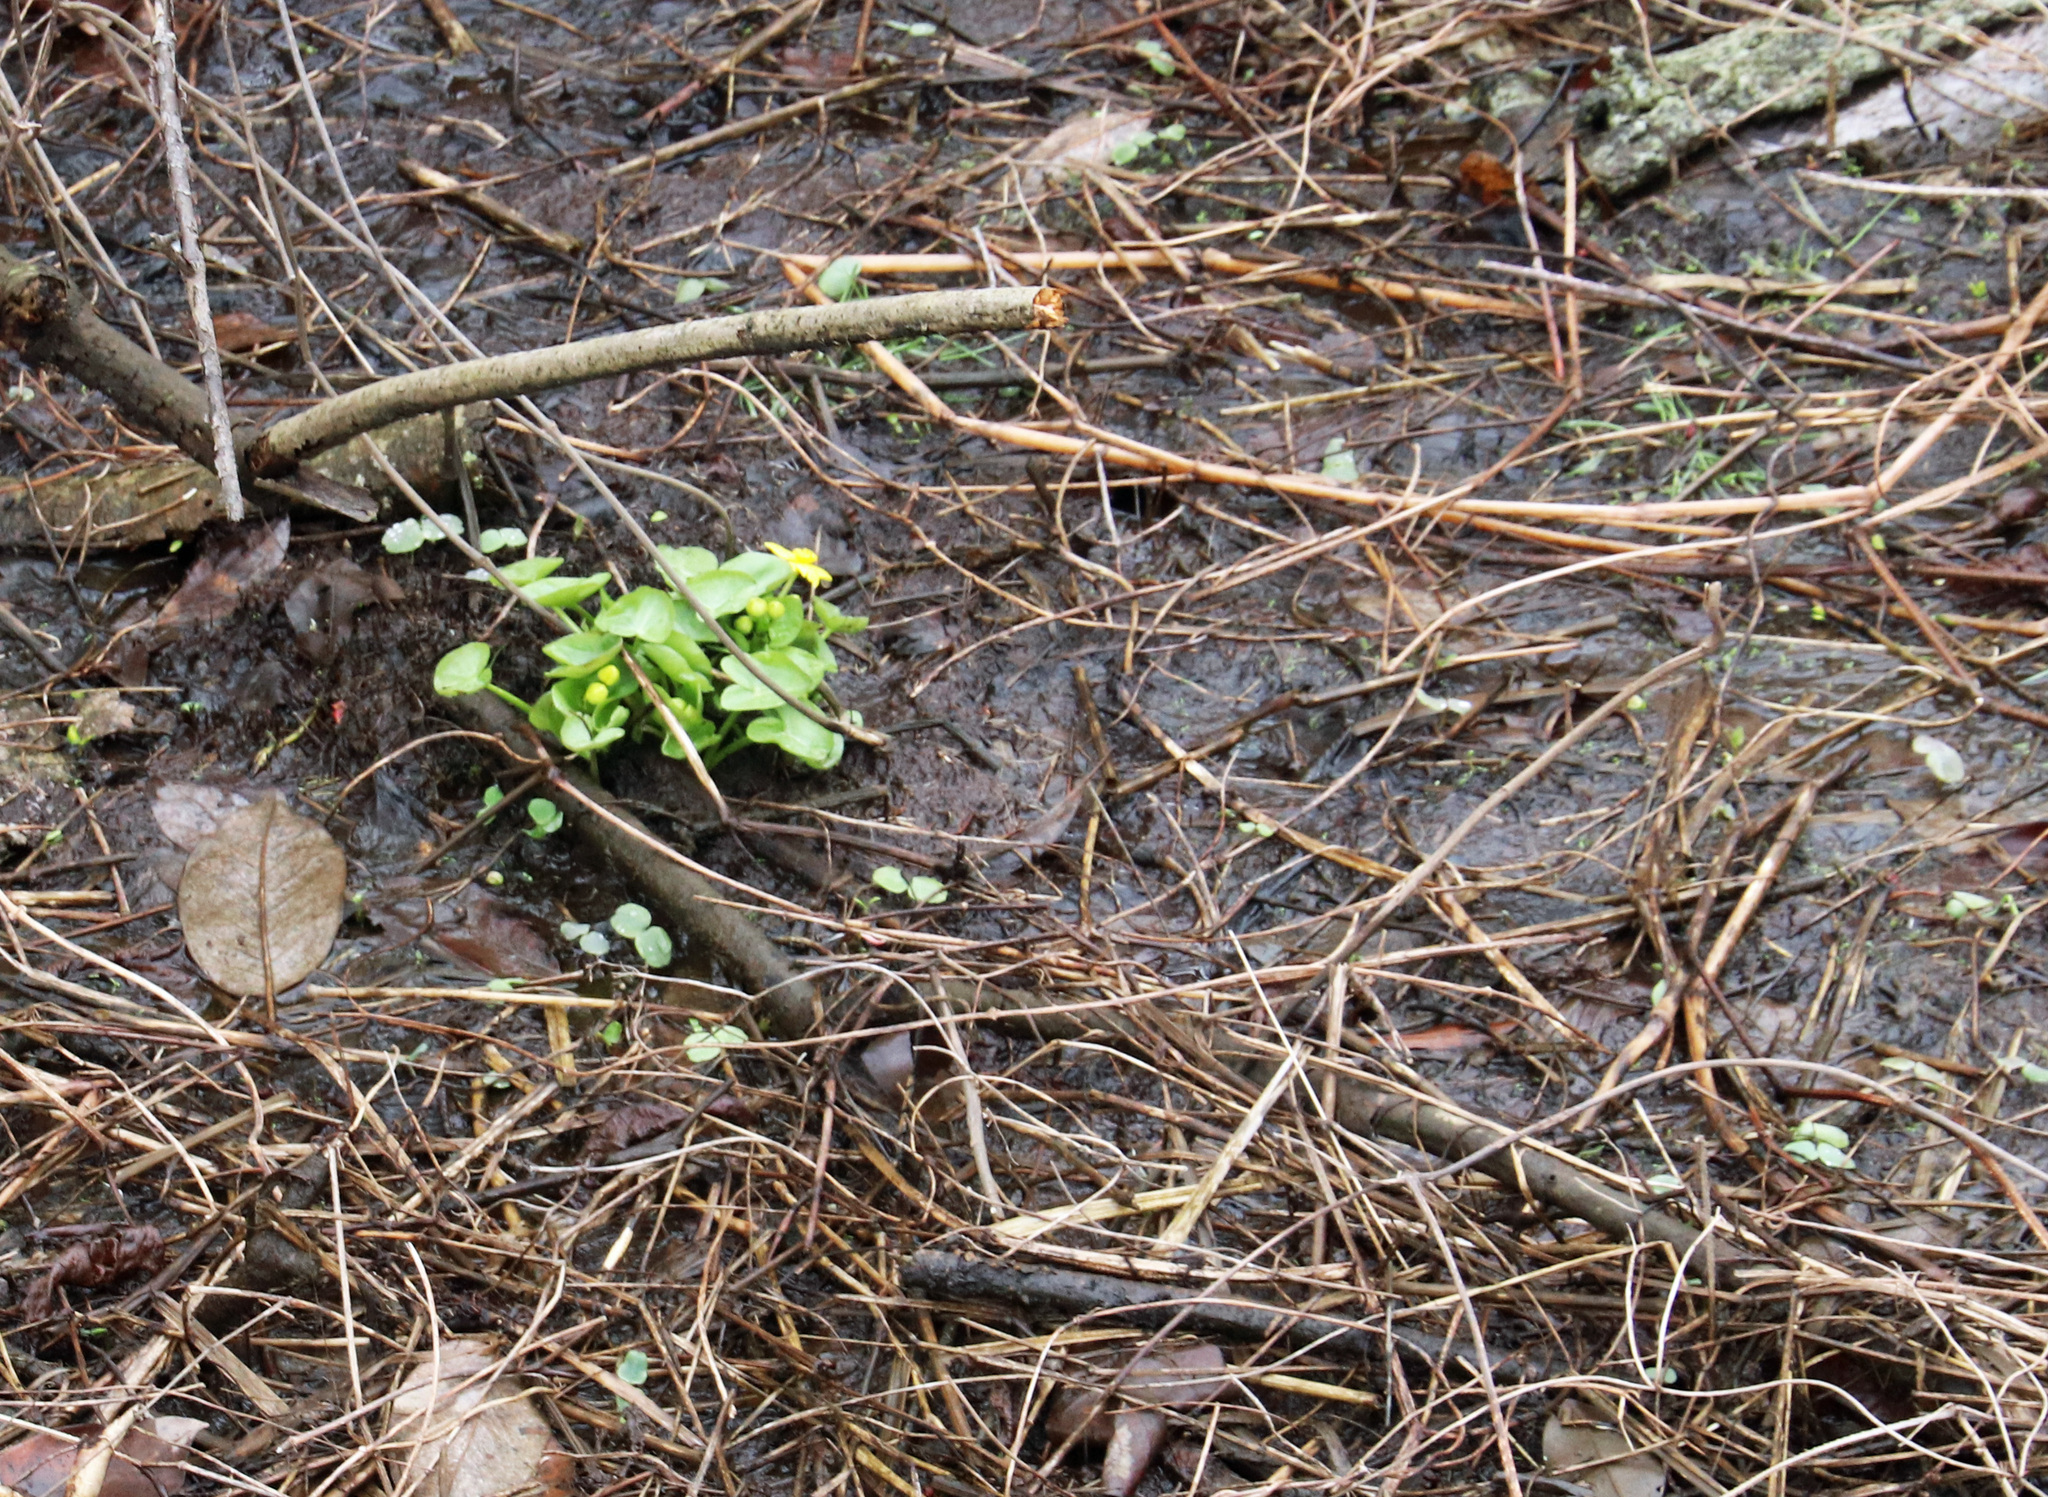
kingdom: Plantae
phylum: Tracheophyta
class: Magnoliopsida
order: Ranunculales
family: Ranunculaceae
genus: Caltha
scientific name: Caltha palustris
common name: Marsh marigold
